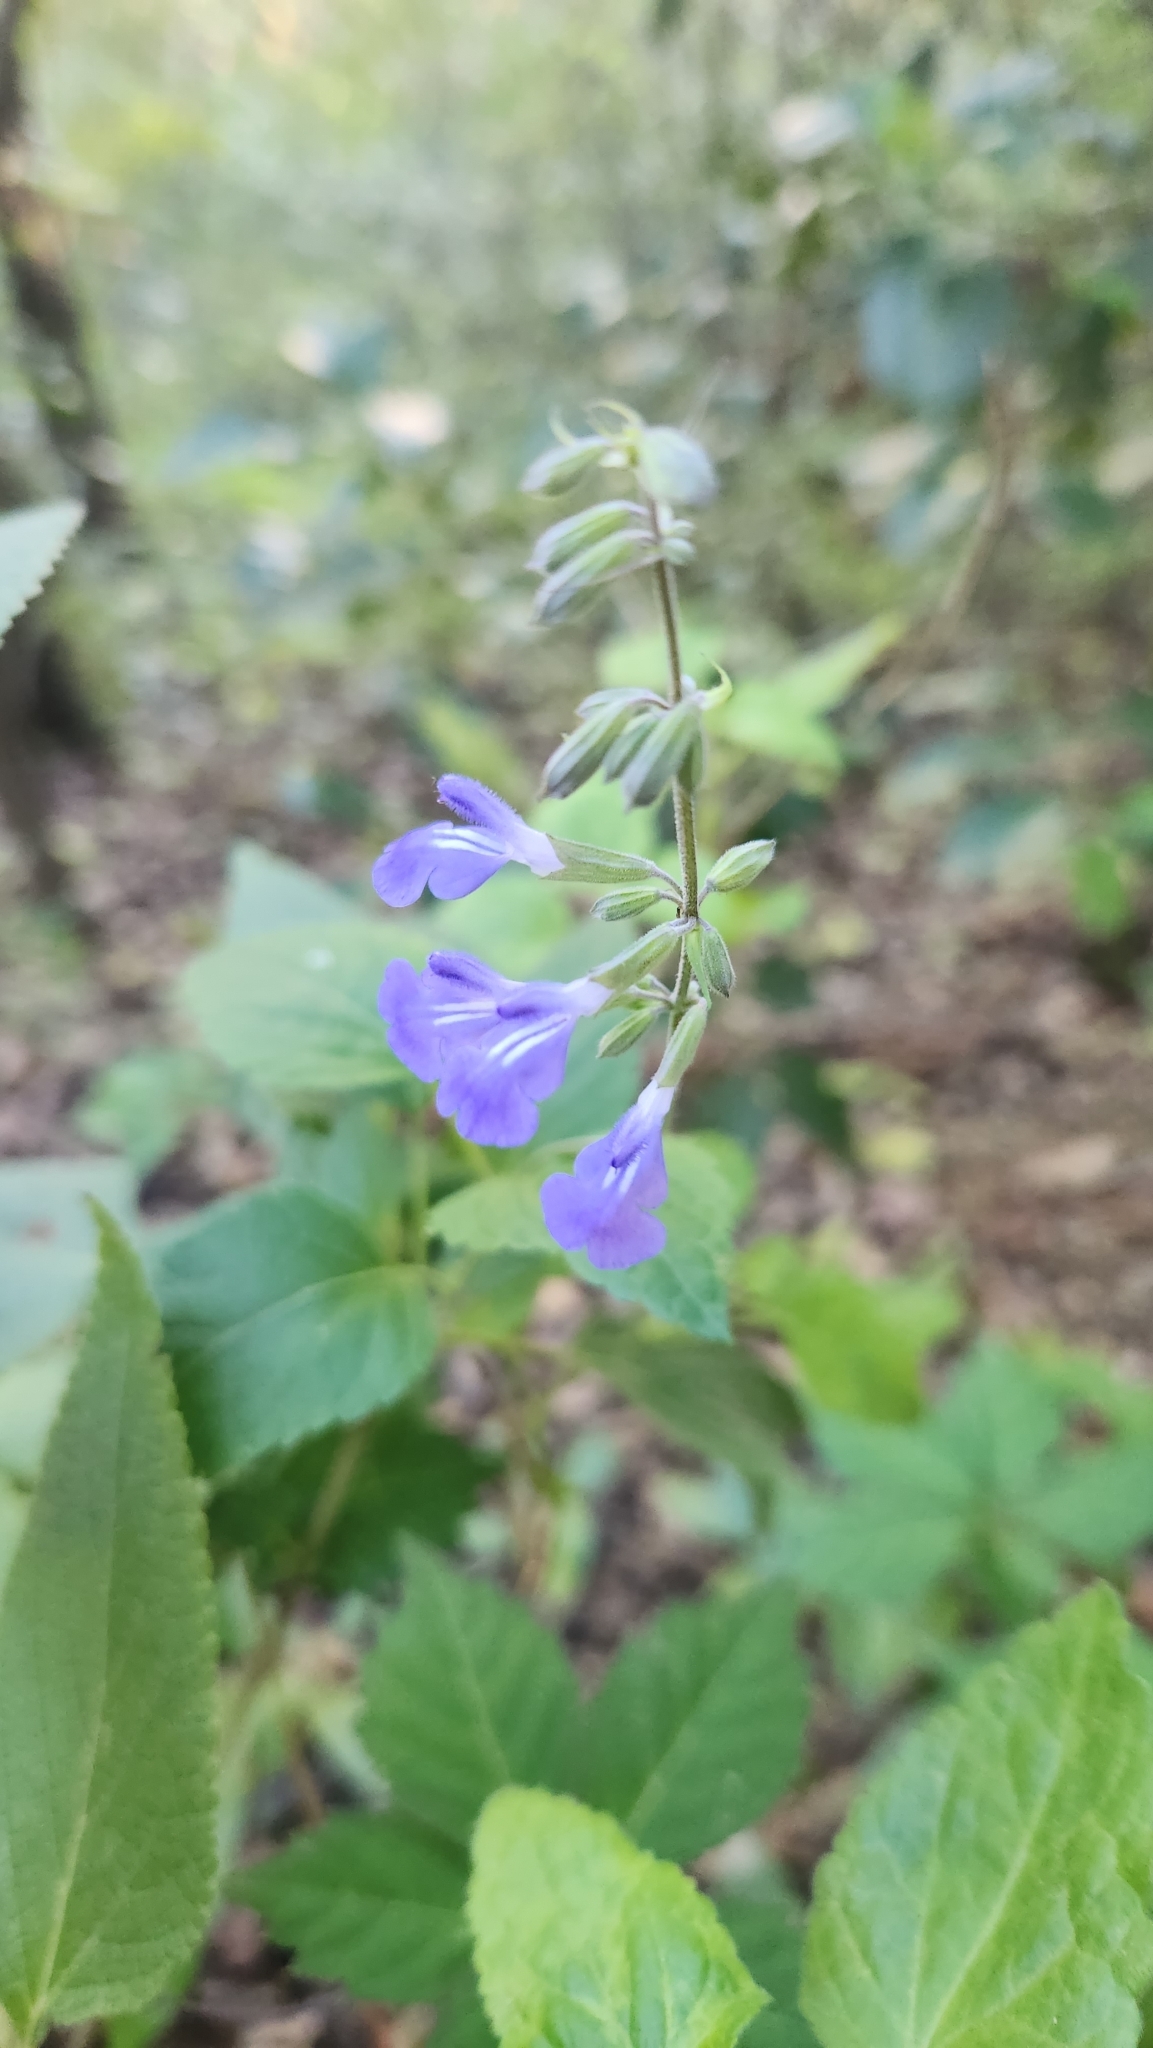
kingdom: Plantae
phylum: Tracheophyta
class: Magnoliopsida
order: Lamiales
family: Lamiaceae
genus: Salvia
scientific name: Salvia urolepis
